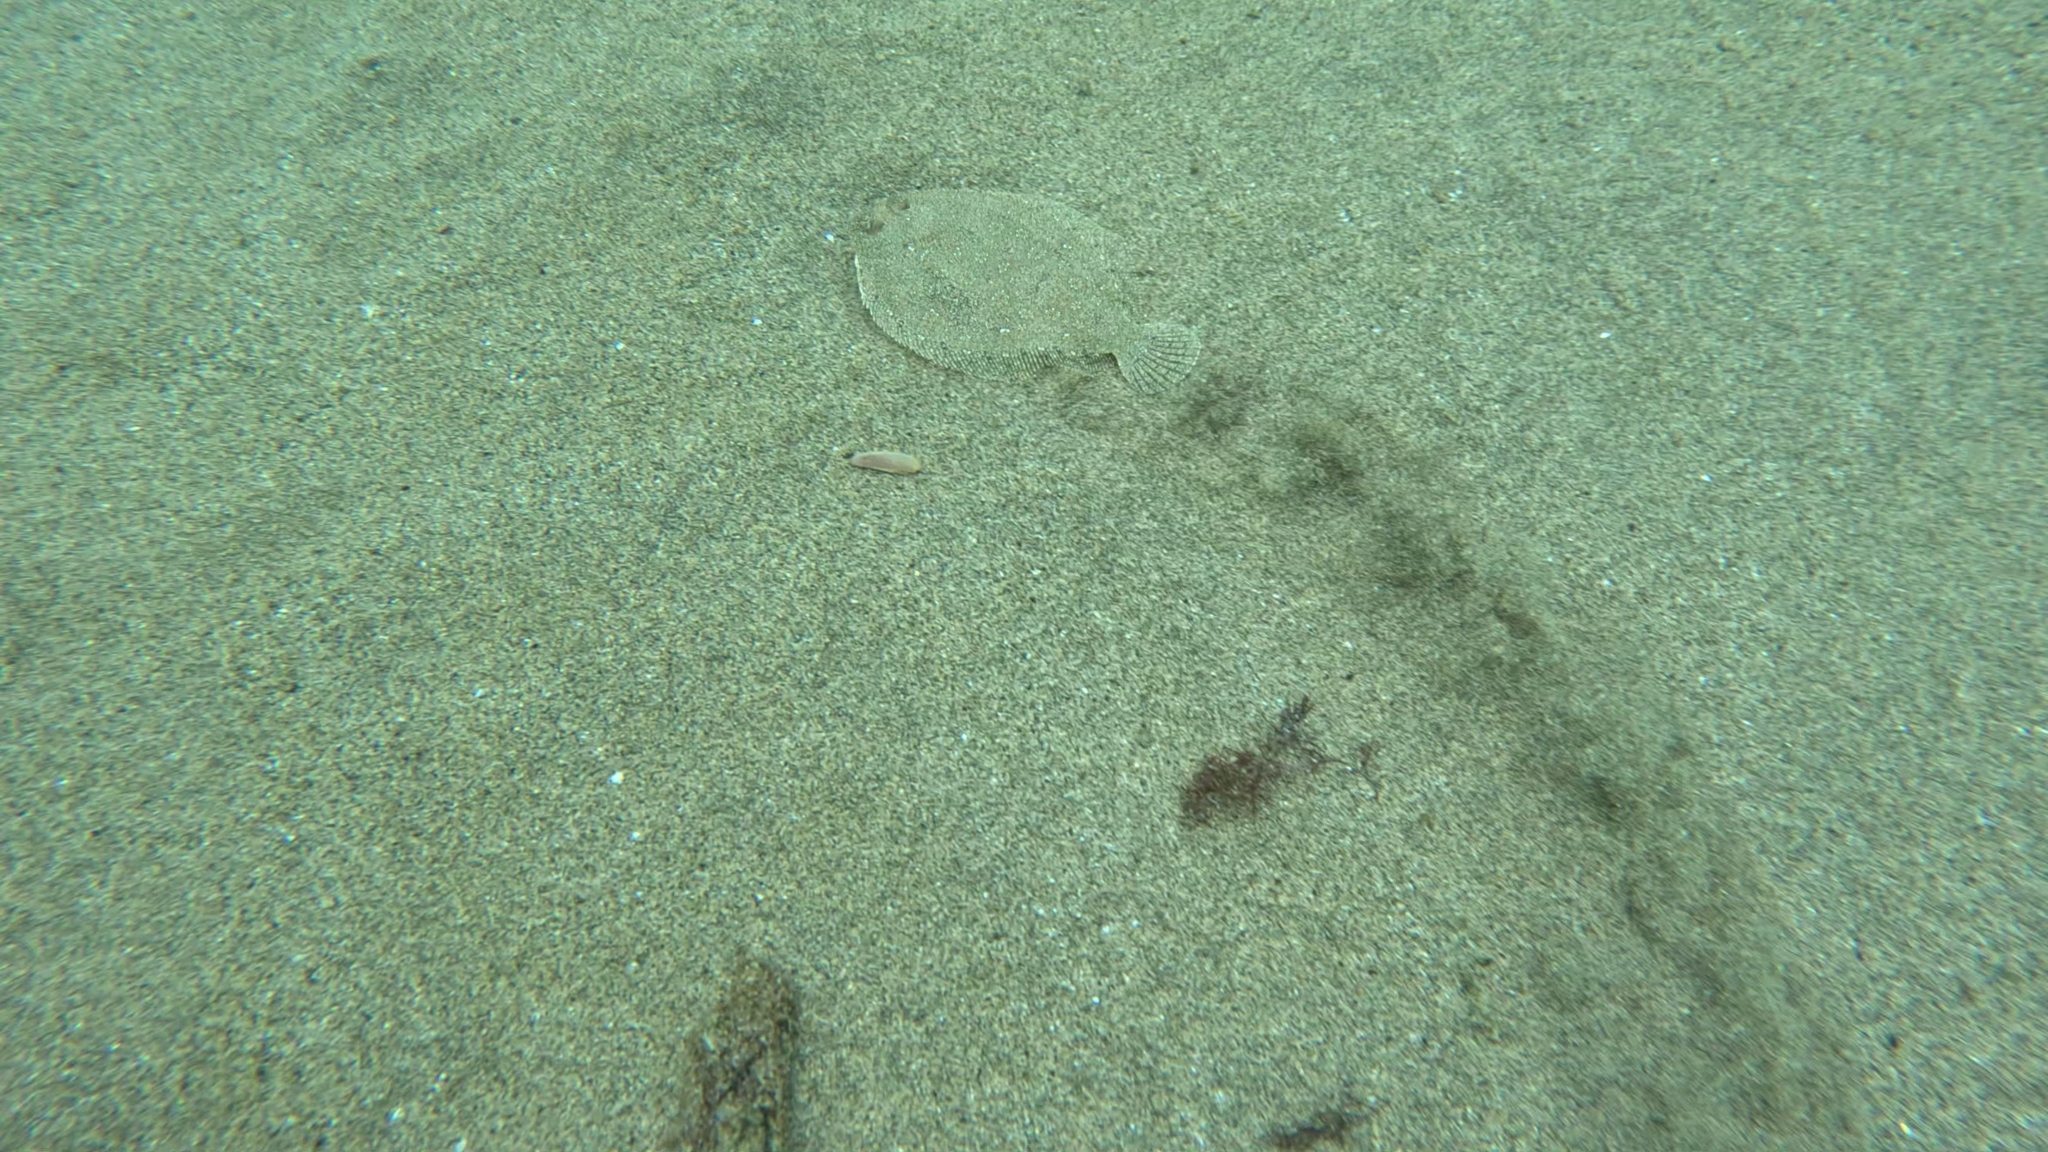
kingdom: Animalia
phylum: Chordata
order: Pleuronectiformes
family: Bothidae
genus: Bothus
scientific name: Bothus podas
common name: Wide-eyed flounder
